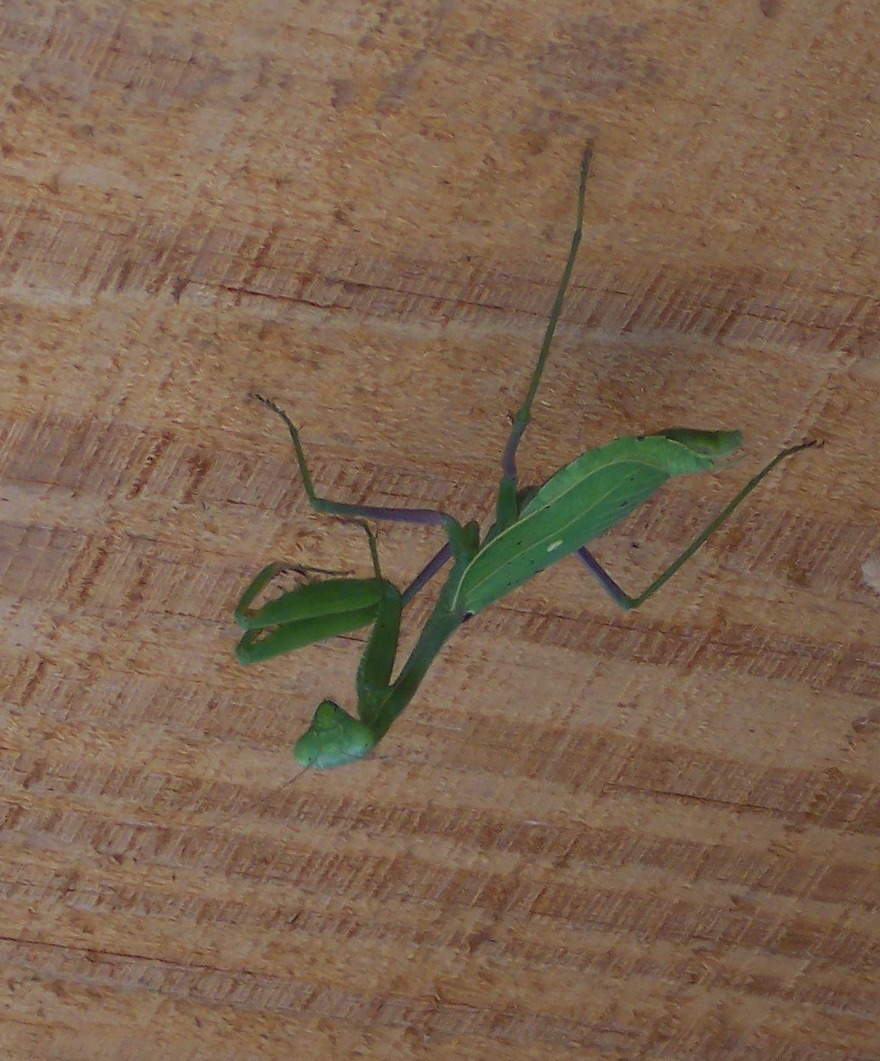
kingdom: Animalia
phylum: Arthropoda
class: Insecta
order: Mantodea
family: Mantidae
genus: Stagmomantis
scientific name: Stagmomantis limbata
